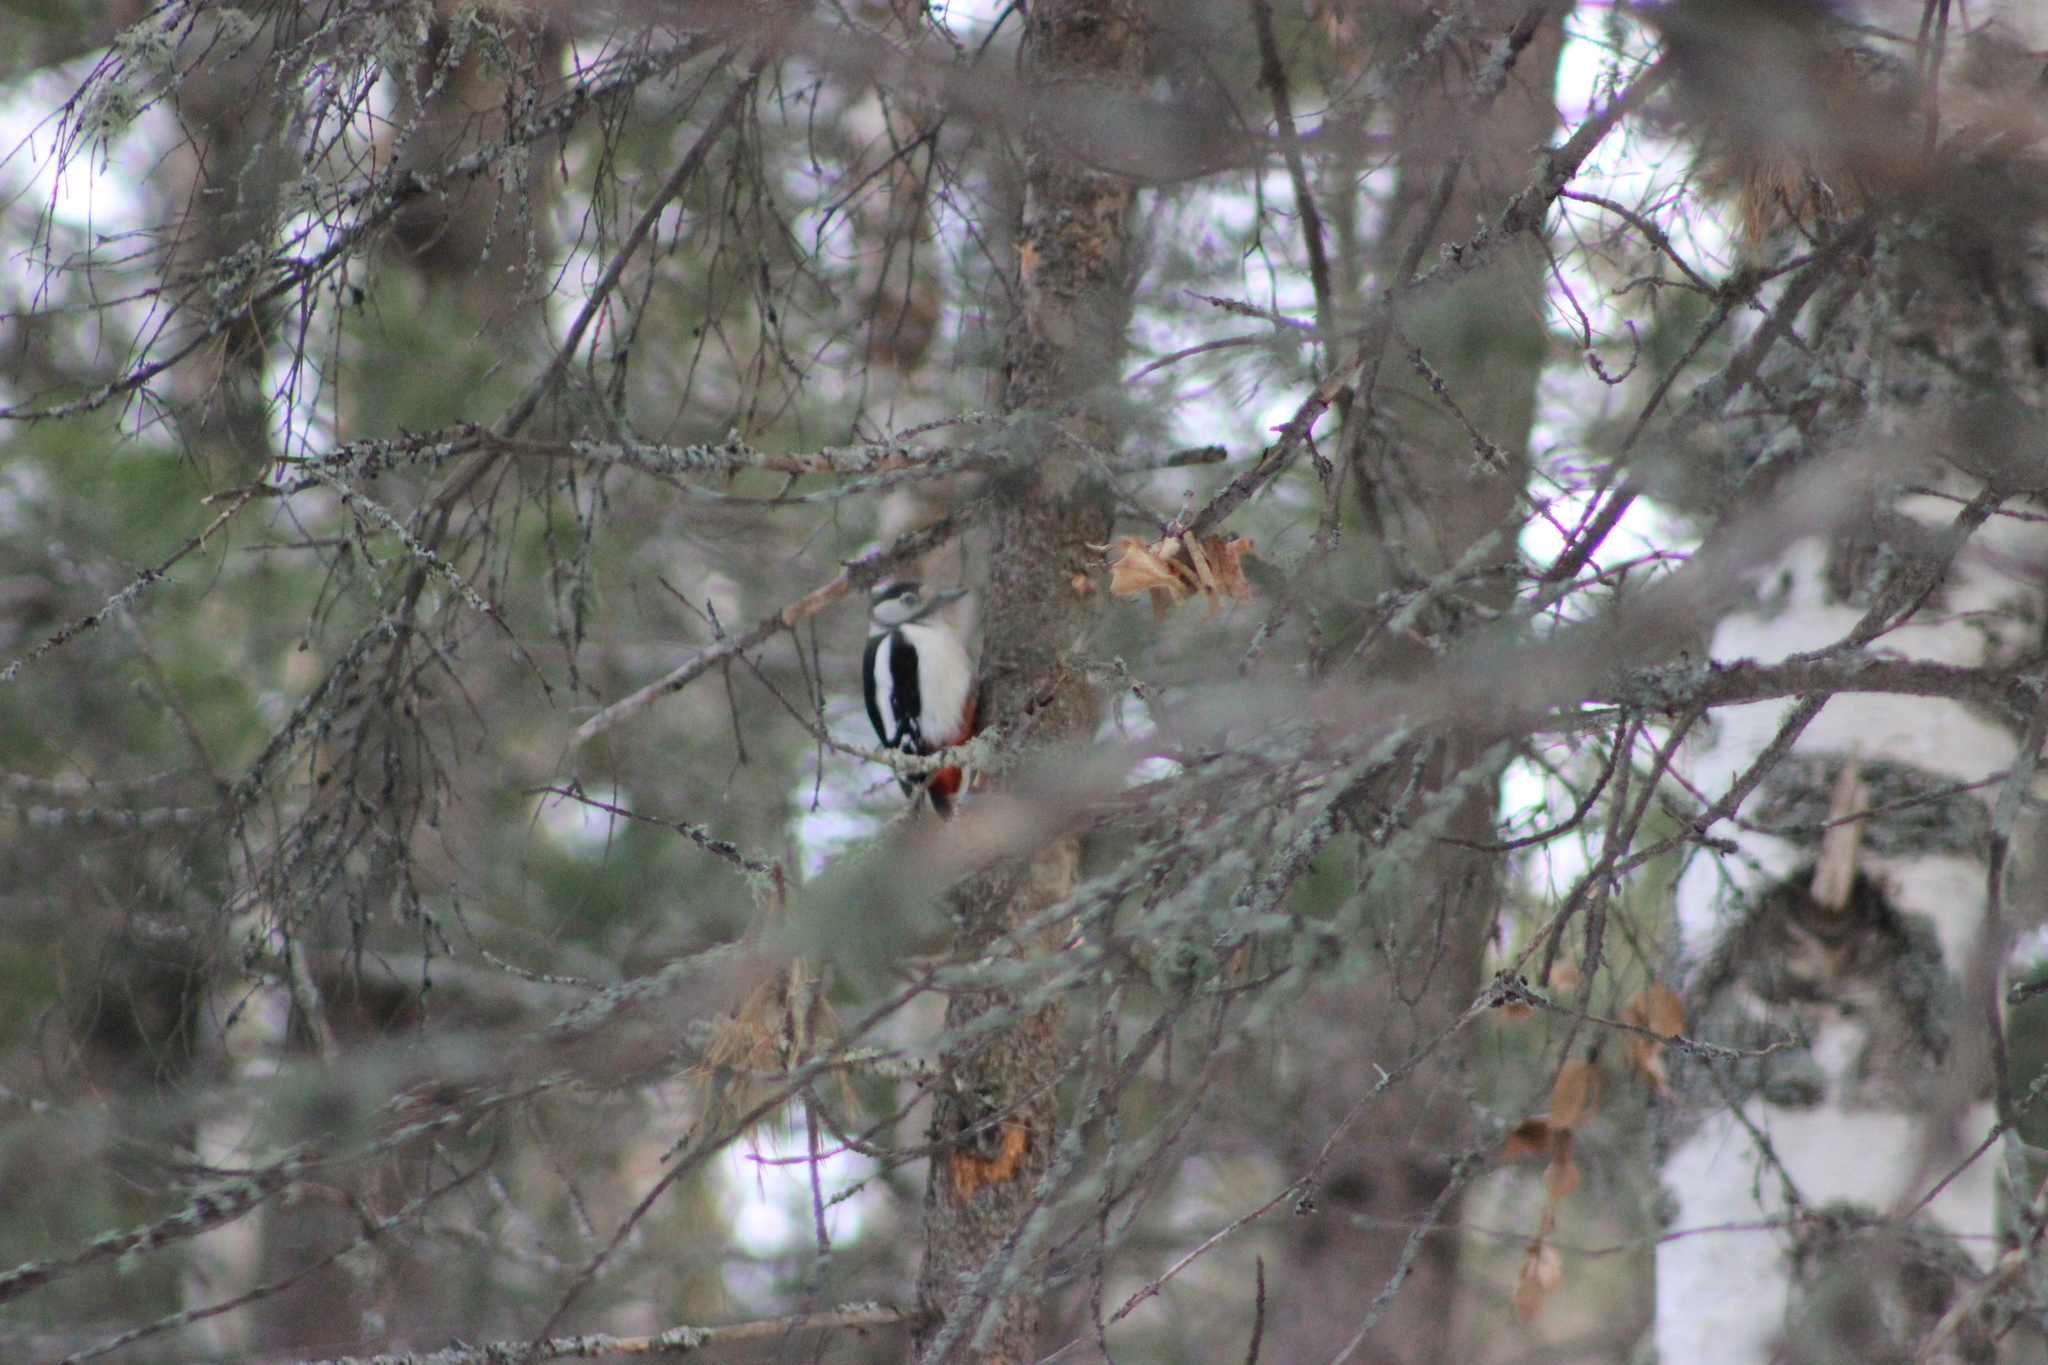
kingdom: Animalia
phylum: Chordata
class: Aves
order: Piciformes
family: Picidae
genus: Dendrocopos
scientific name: Dendrocopos major
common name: Great spotted woodpecker
